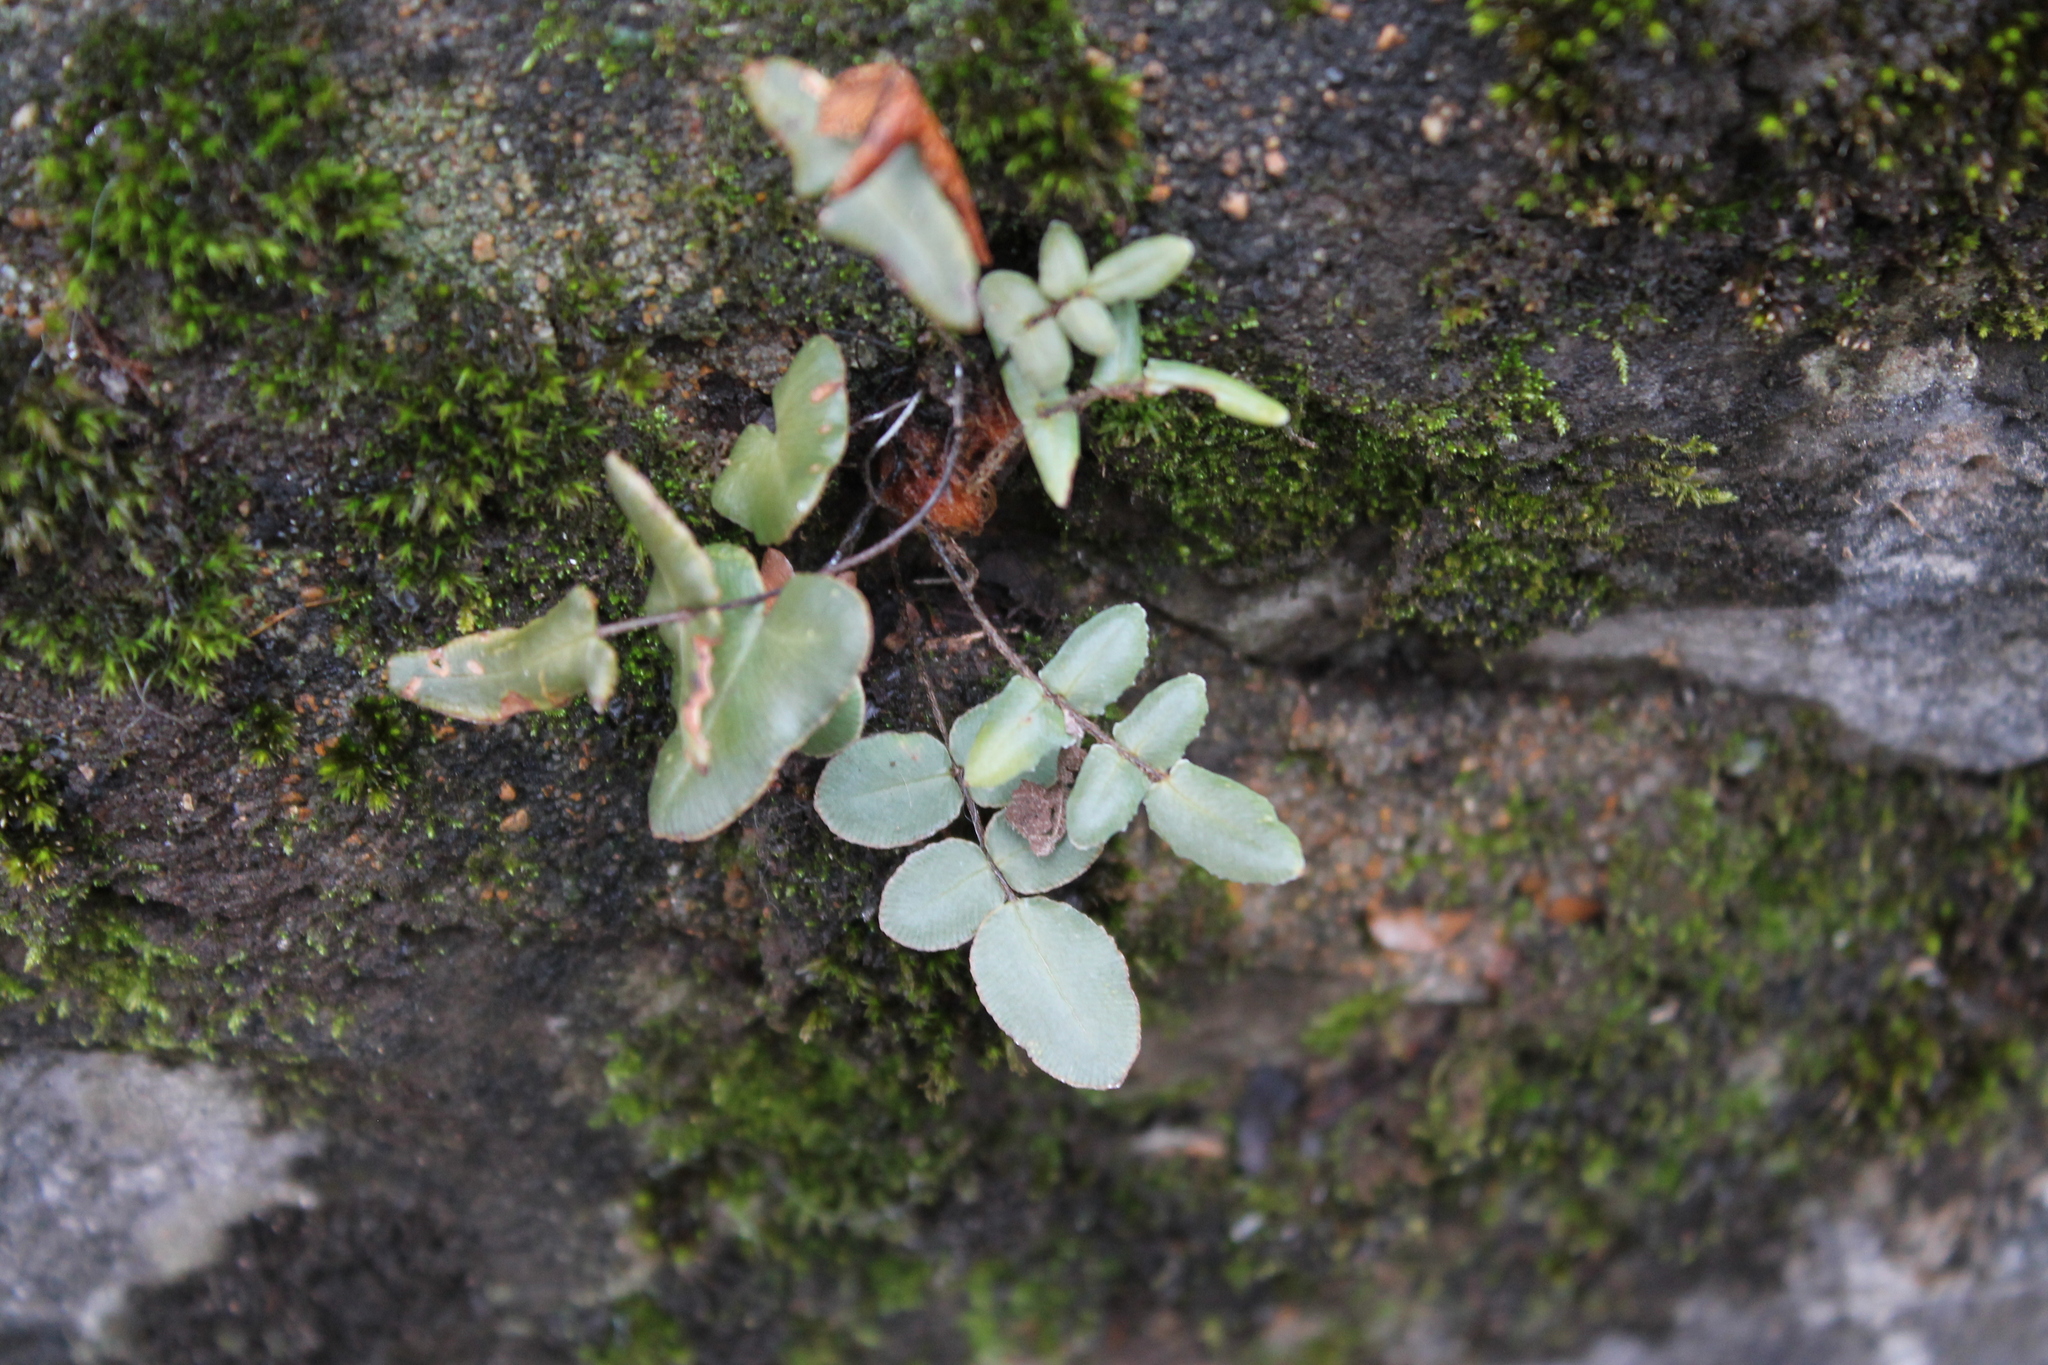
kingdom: Plantae
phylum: Tracheophyta
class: Polypodiopsida
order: Polypodiales
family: Pteridaceae
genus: Pellaea
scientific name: Pellaea atropurpurea
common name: Hairy cliffbrake
